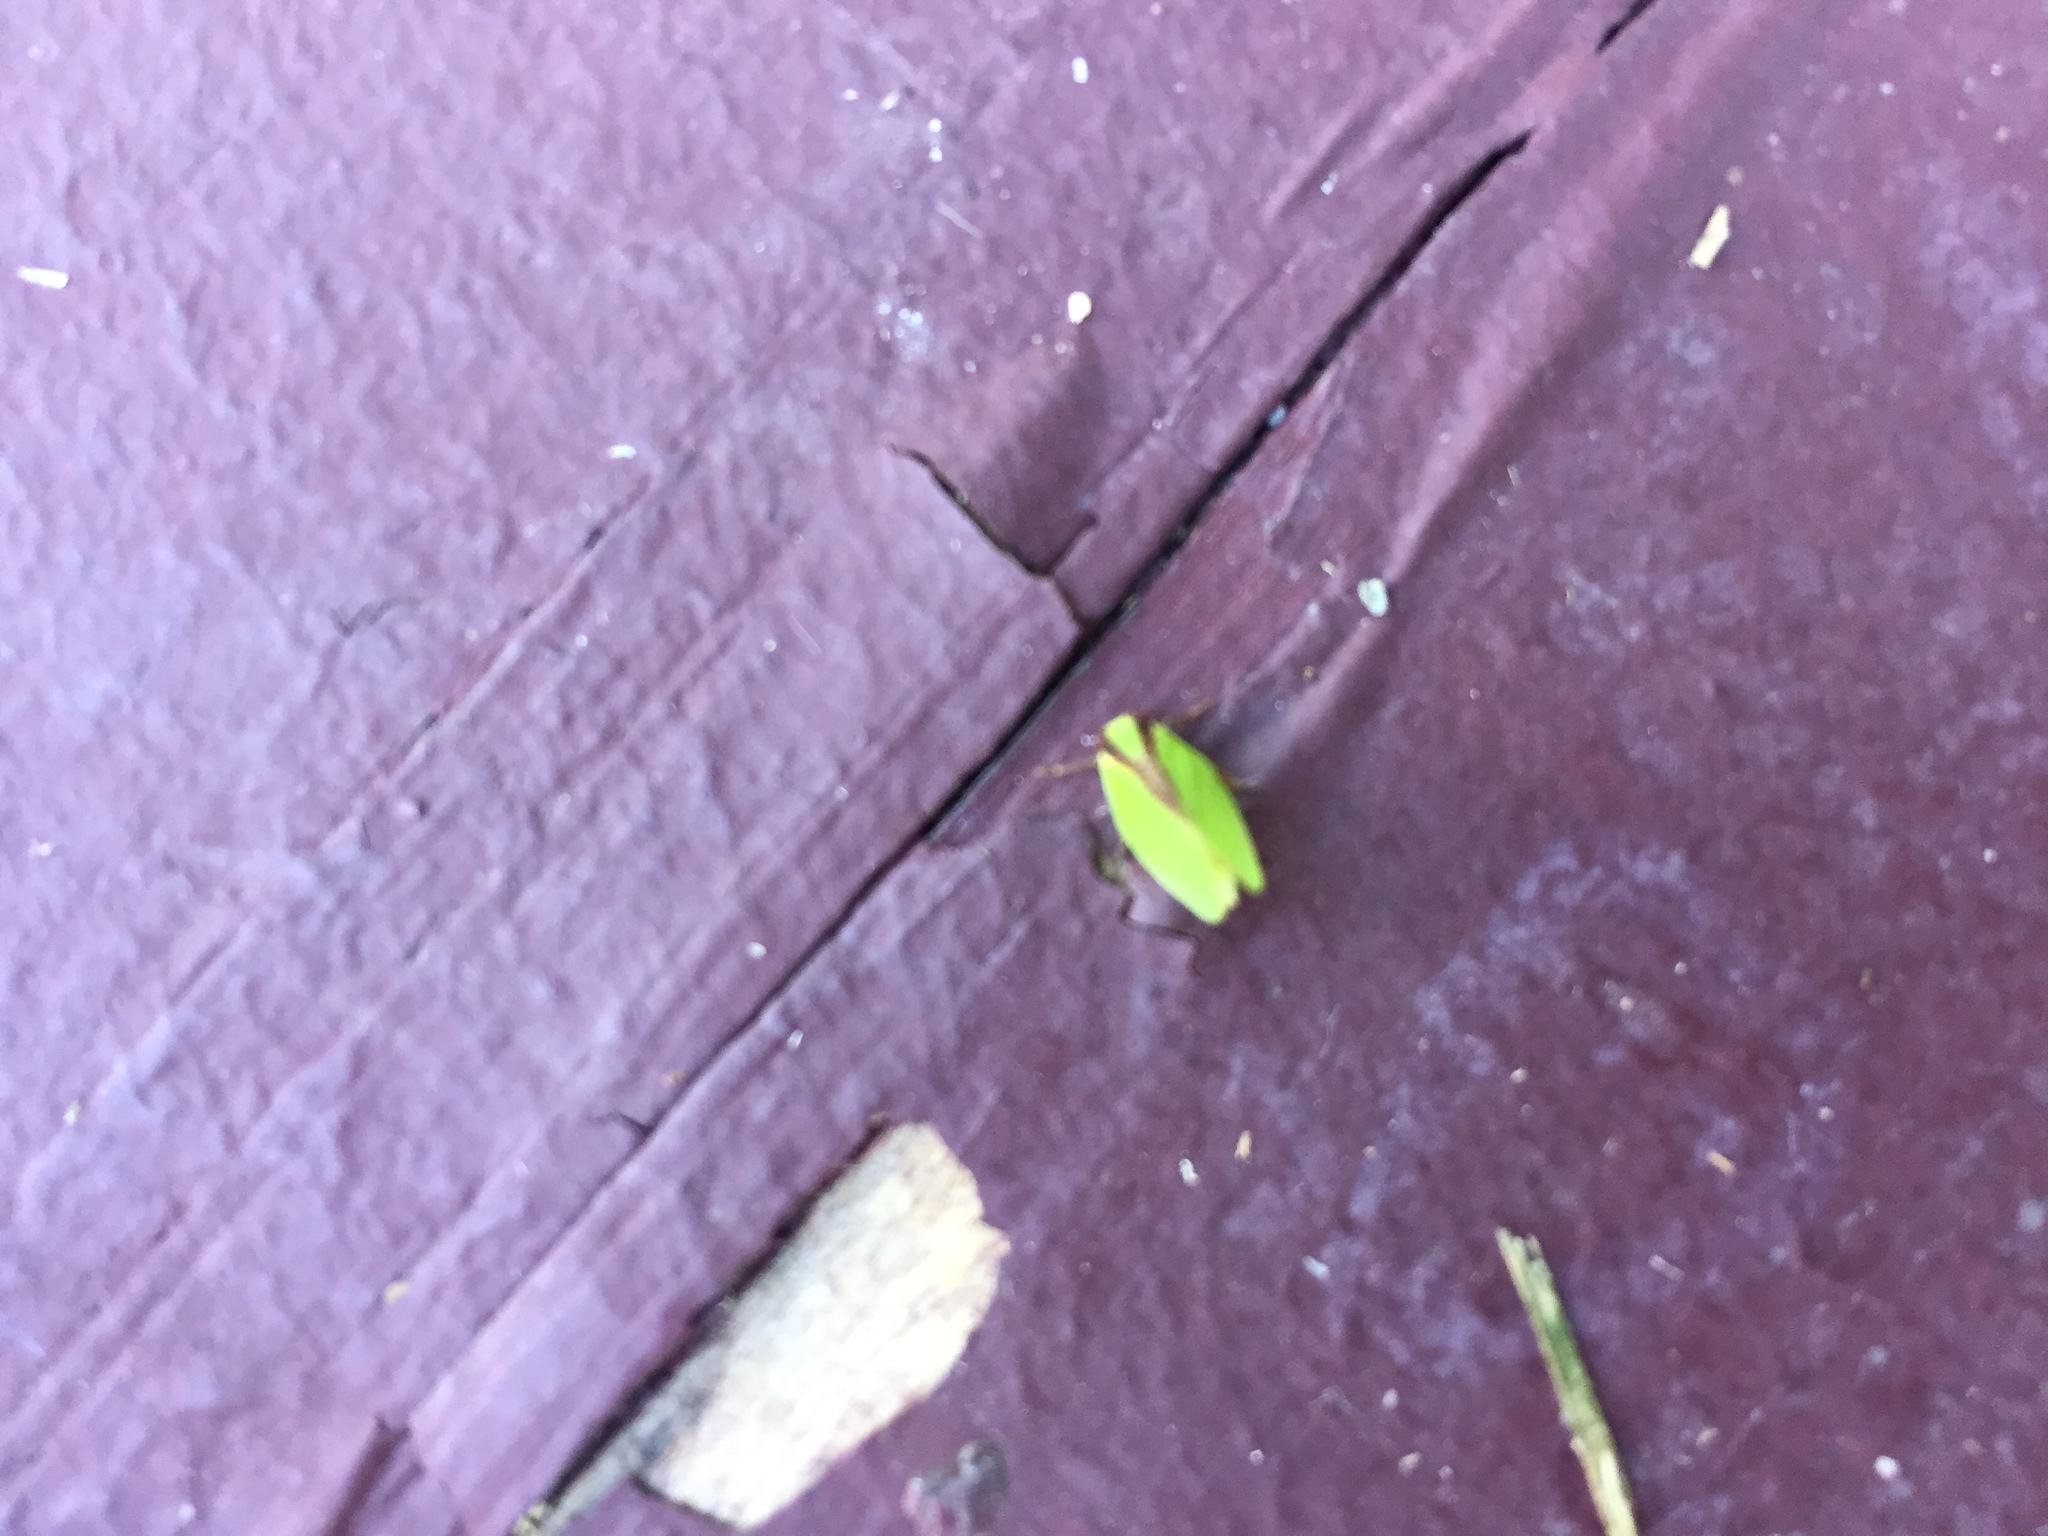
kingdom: Animalia
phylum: Arthropoda
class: Insecta
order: Hemiptera
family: Acanaloniidae
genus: Acanalonia
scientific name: Acanalonia bivittata
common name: Two-striped planthopper
